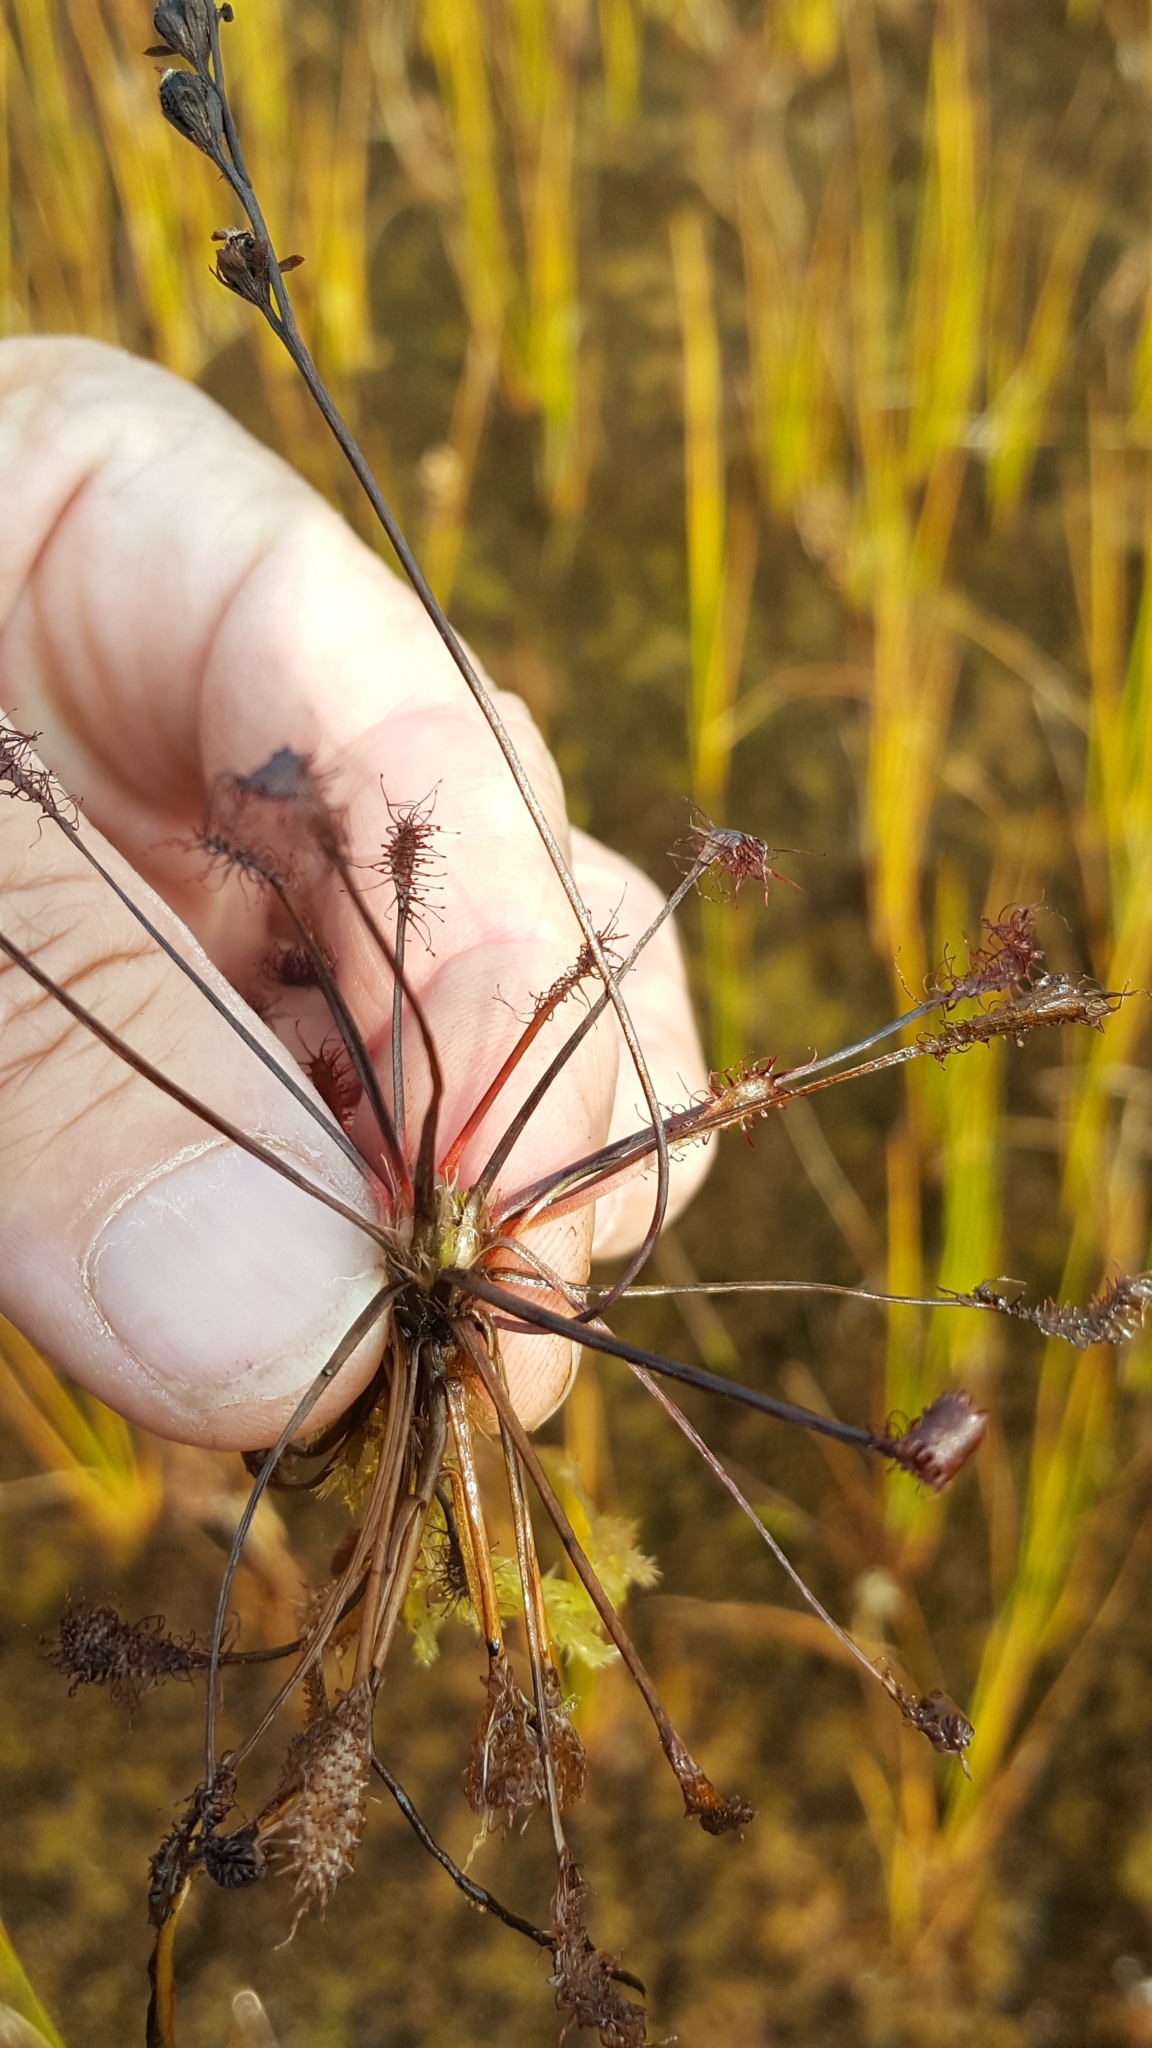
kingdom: Plantae
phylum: Tracheophyta
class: Magnoliopsida
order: Caryophyllales
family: Droseraceae
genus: Drosera
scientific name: Drosera intermedia
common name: Oblong-leaved sundew
